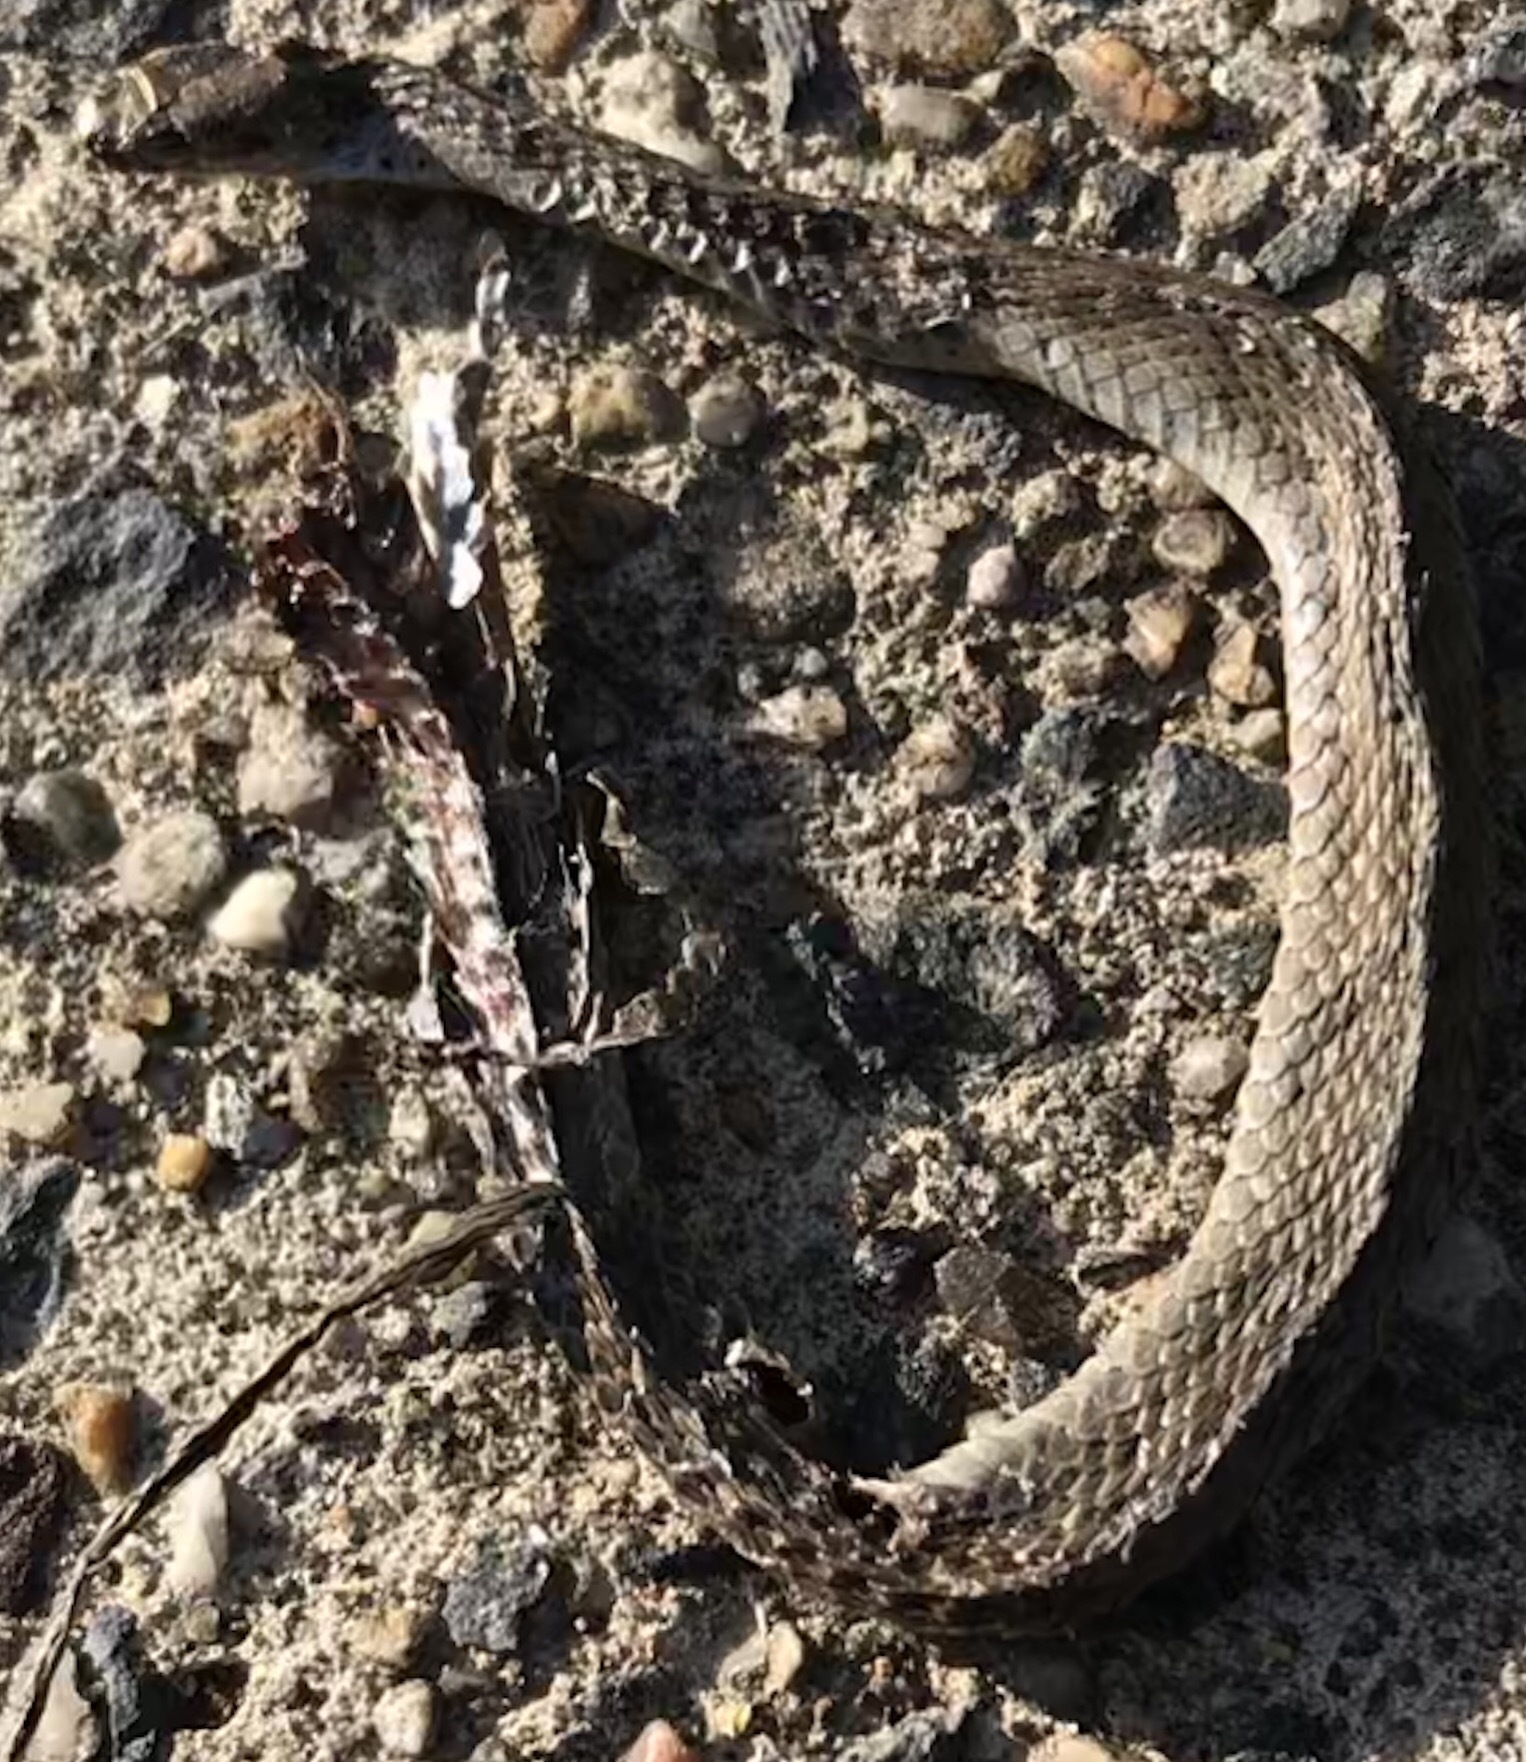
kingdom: Animalia
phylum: Chordata
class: Squamata
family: Colubridae
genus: Storeria
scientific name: Storeria dekayi
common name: (dekay’s) brown snake
